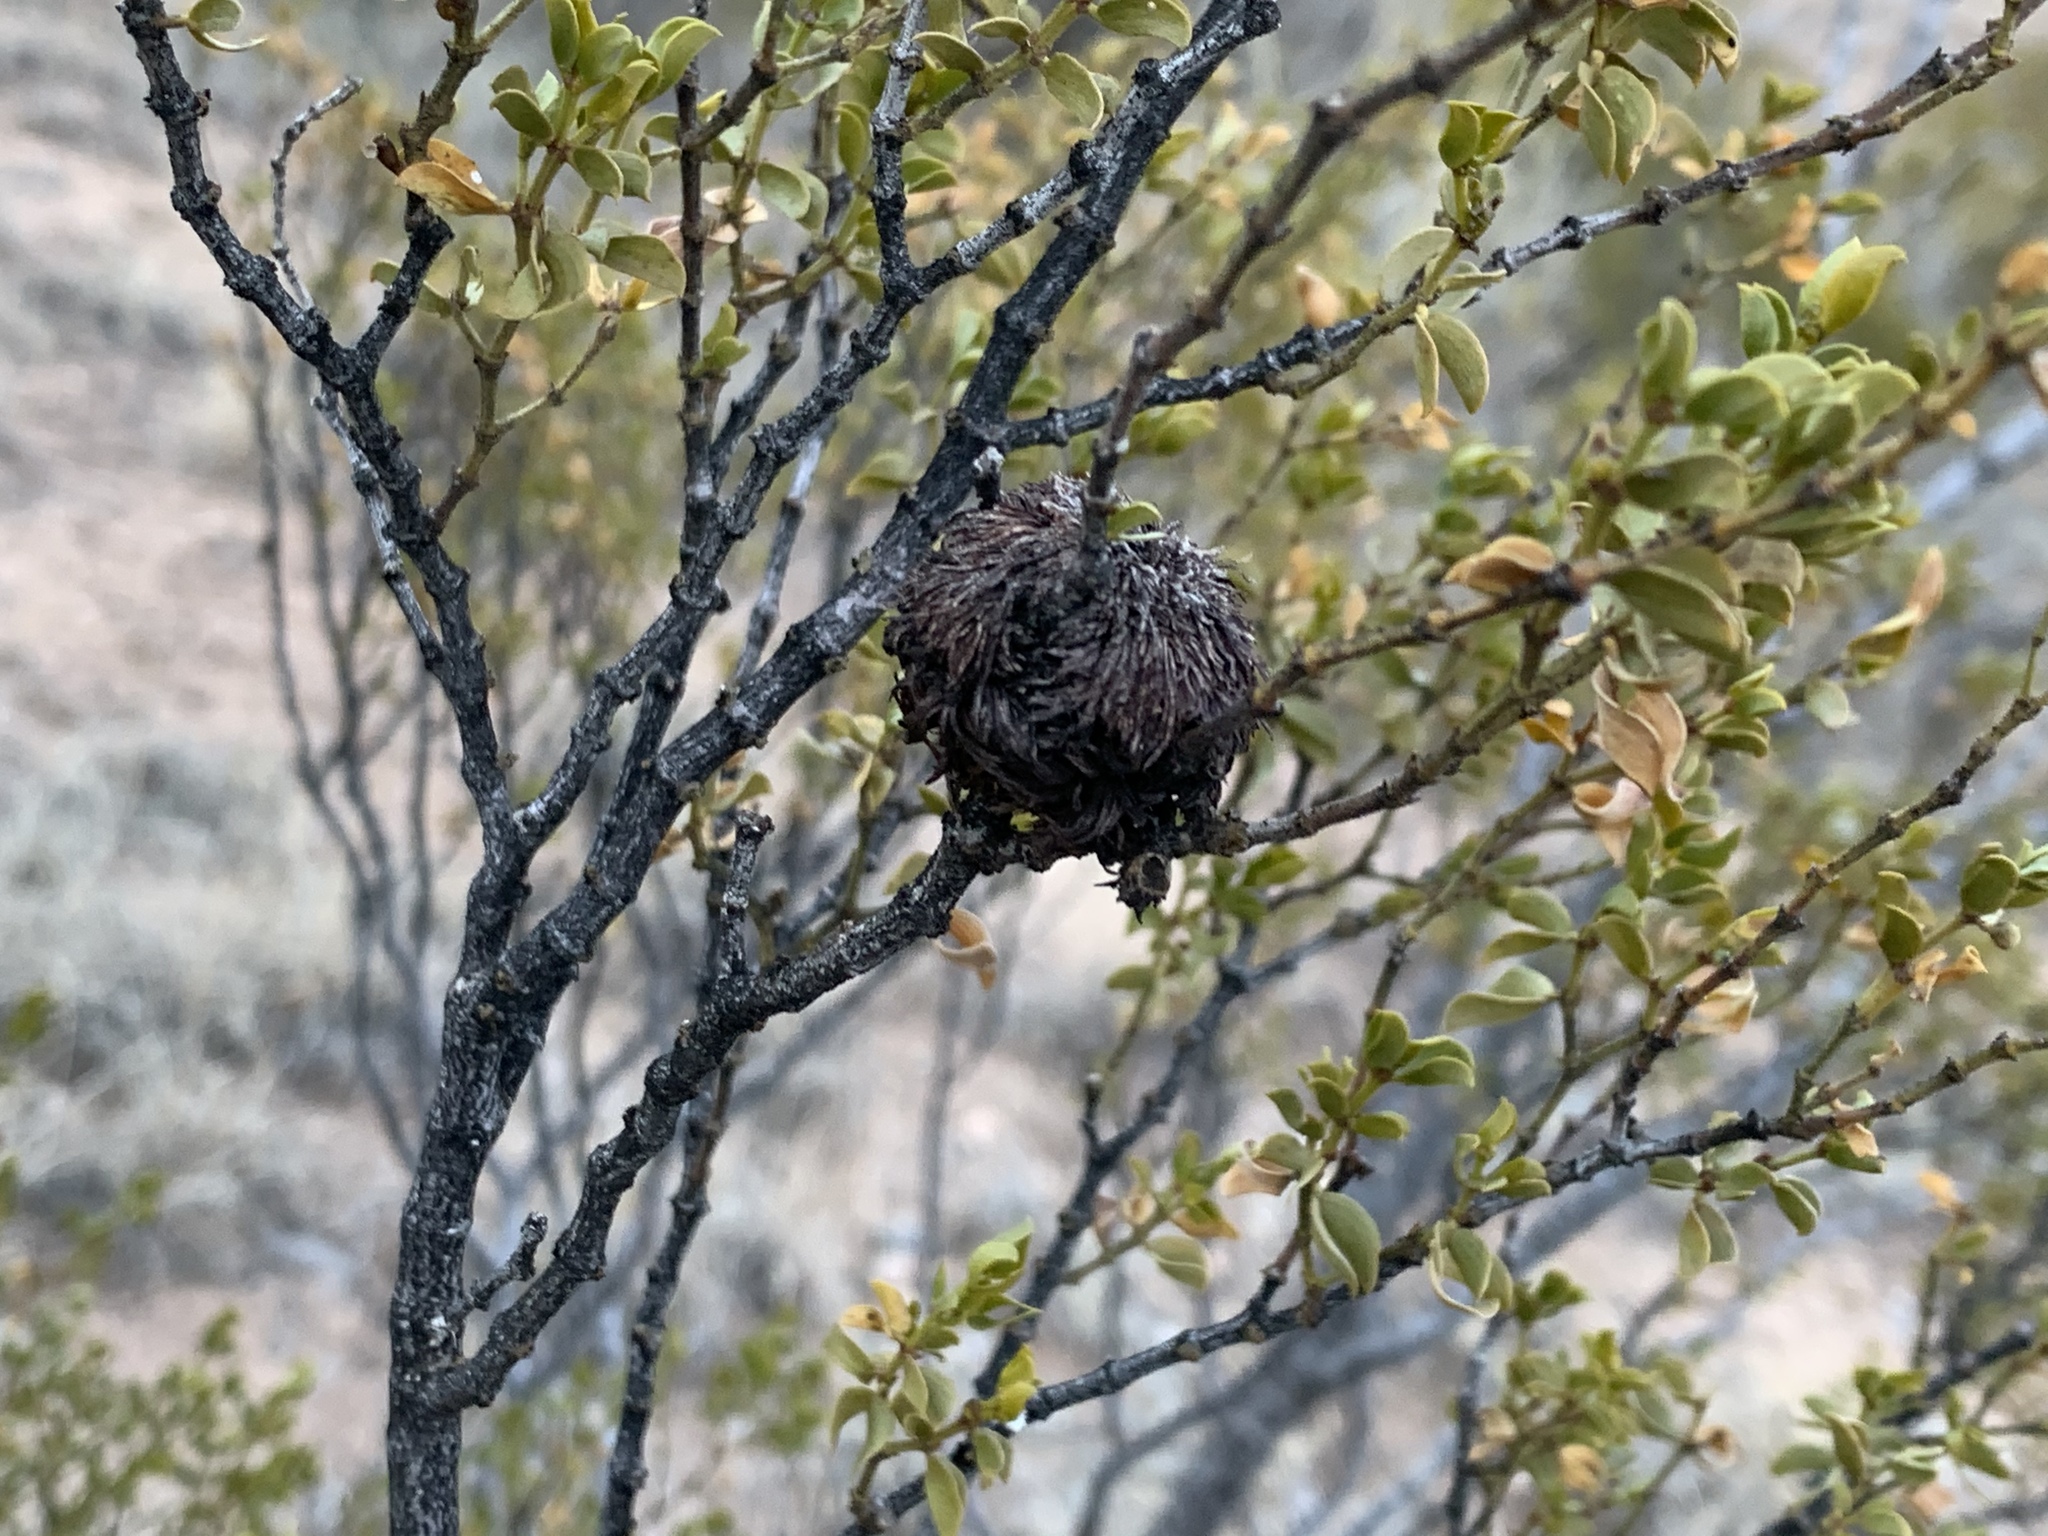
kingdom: Animalia
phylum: Arthropoda
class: Insecta
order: Diptera
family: Cecidomyiidae
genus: Asphondylia
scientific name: Asphondylia auripila
